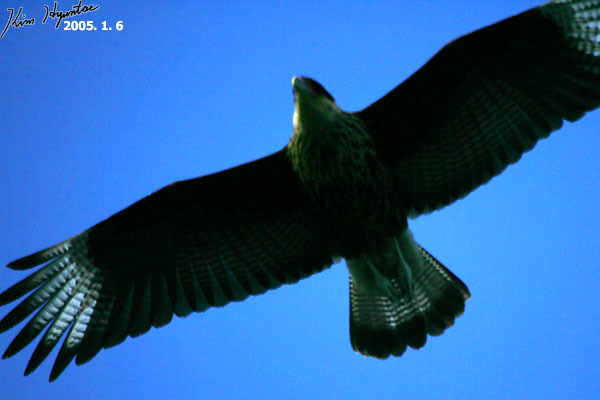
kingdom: Animalia
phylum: Chordata
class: Aves
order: Falconiformes
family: Falconidae
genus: Caracara
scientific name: Caracara plancus
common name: Southern caracara
